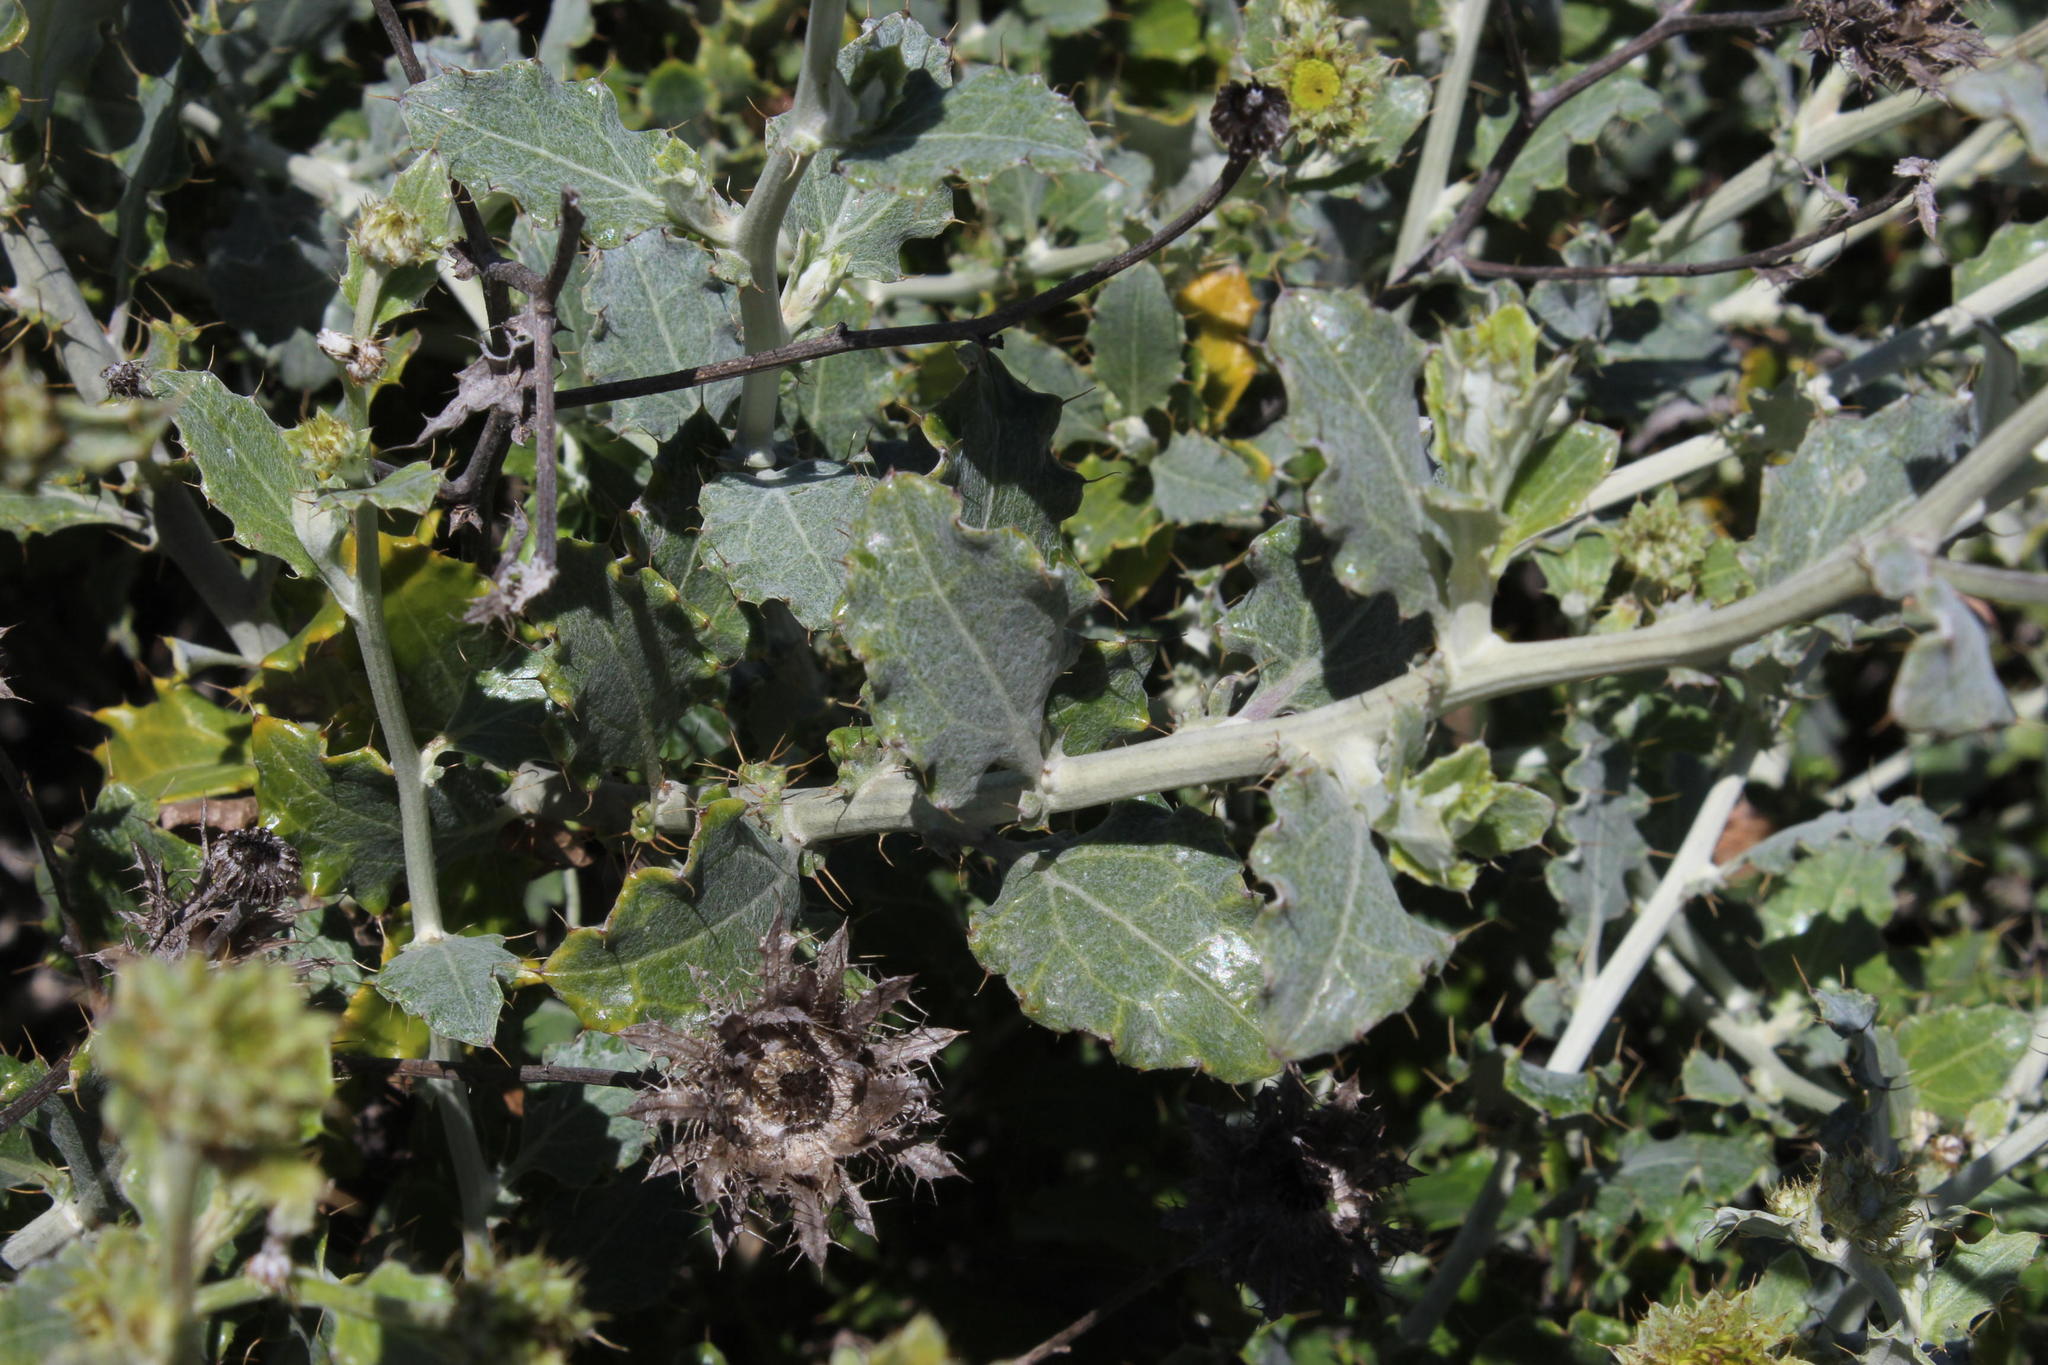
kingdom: Plantae
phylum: Tracheophyta
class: Magnoliopsida
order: Asterales
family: Asteraceae
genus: Berkheya
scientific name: Berkheya fruticosa
